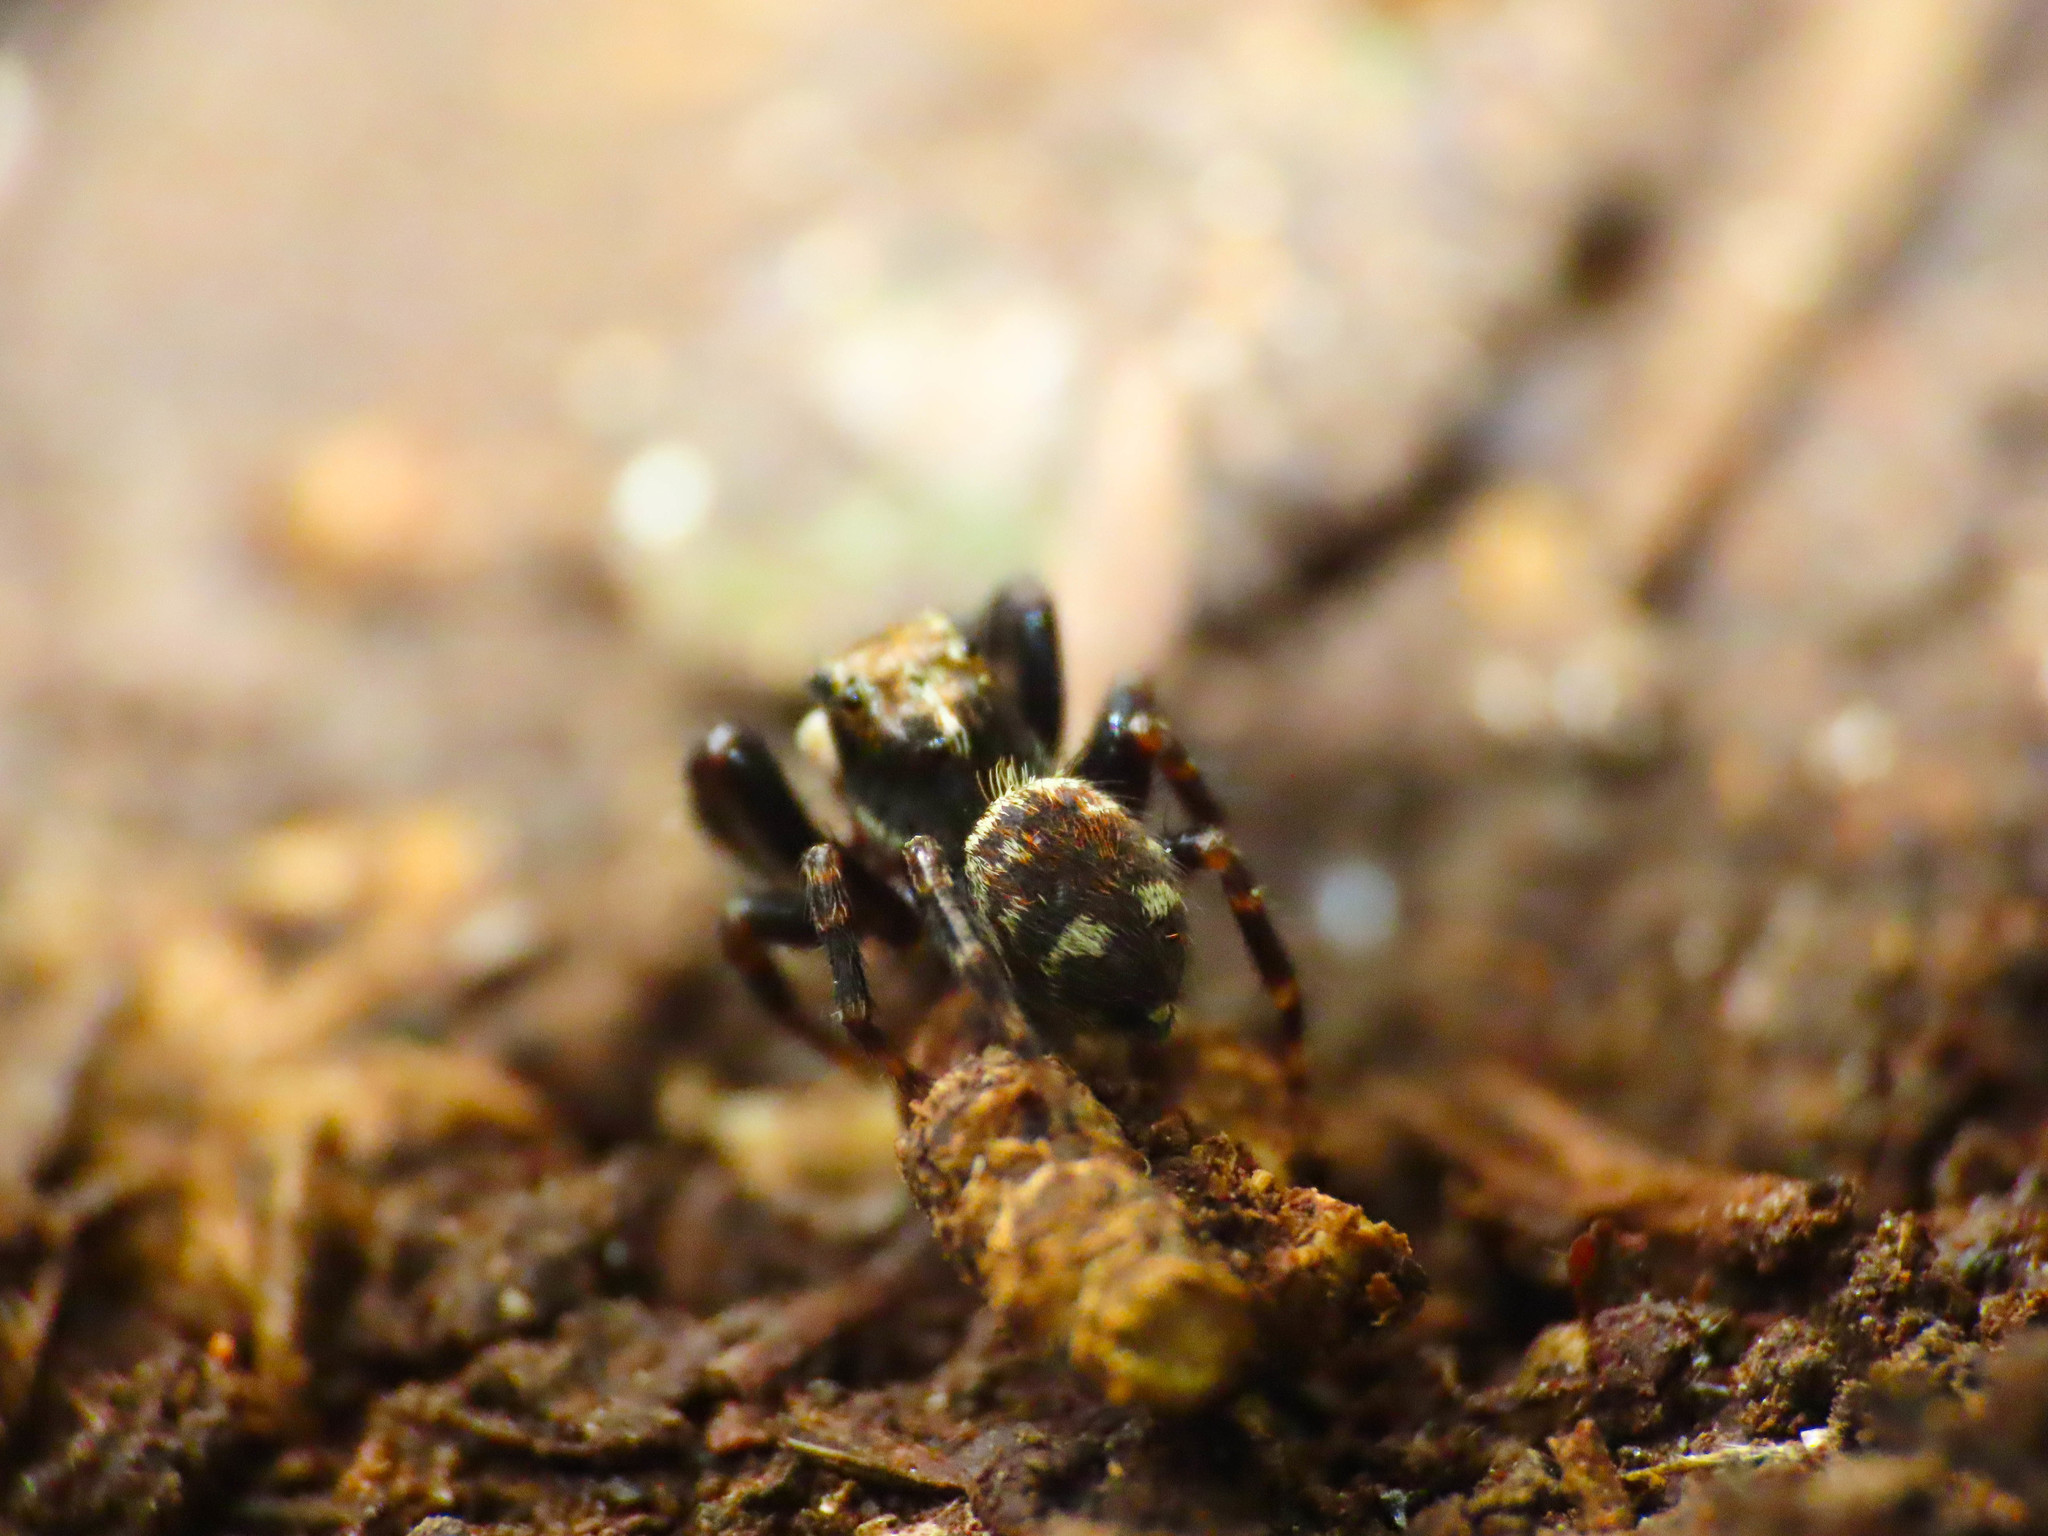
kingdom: Animalia
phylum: Arthropoda
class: Arachnida
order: Araneae
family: Salticidae
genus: Pseudeuophrys
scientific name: Pseudeuophrys erratica
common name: Jumping spider
